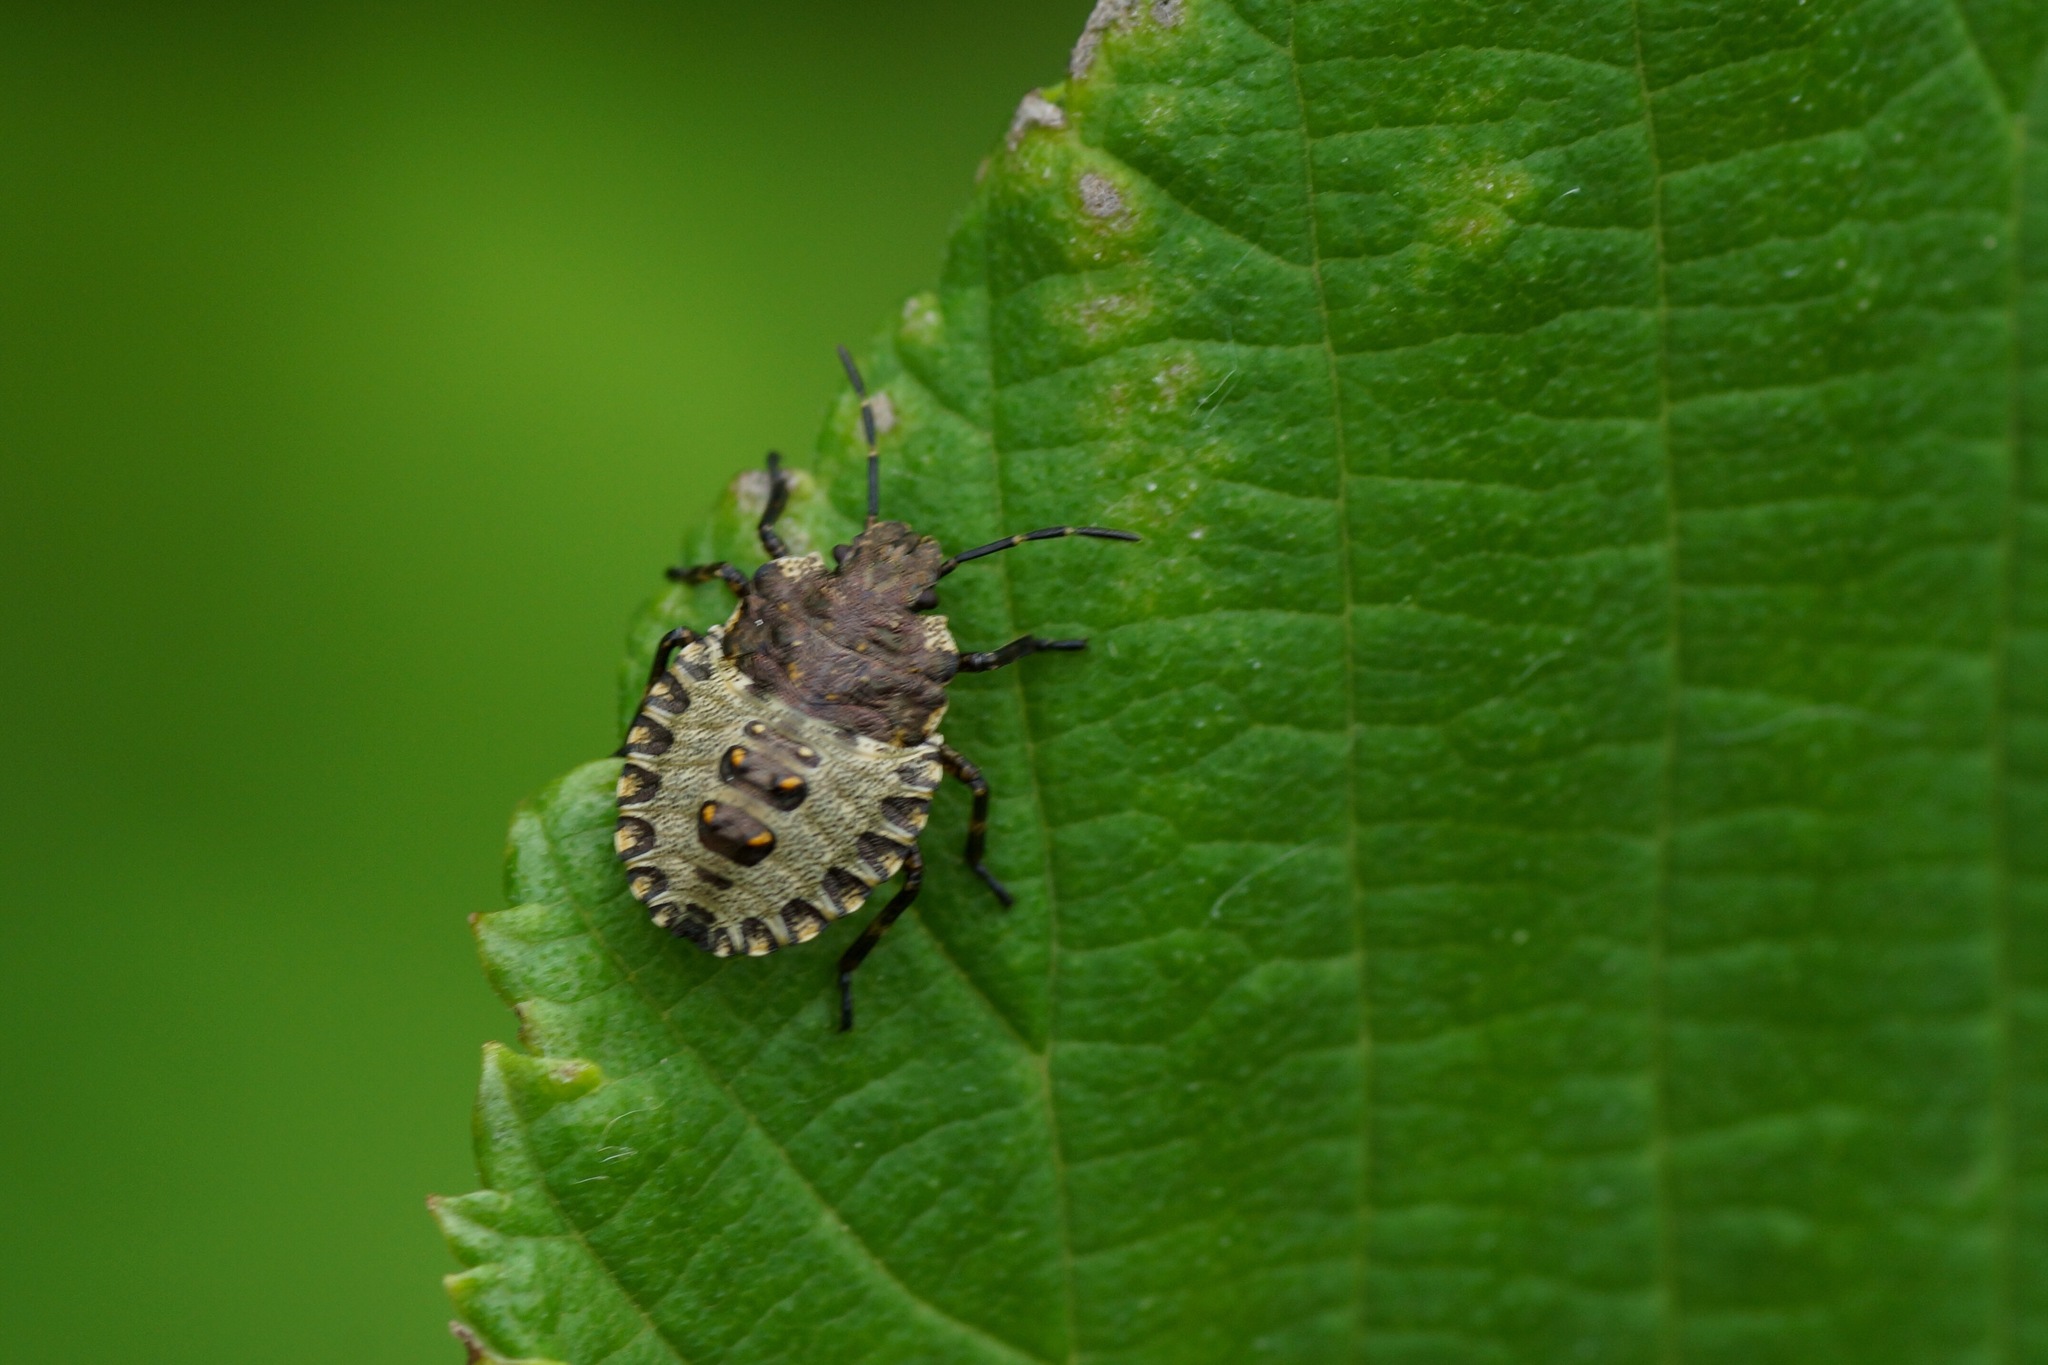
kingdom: Animalia
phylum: Arthropoda
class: Insecta
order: Hemiptera
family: Pentatomidae
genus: Pentatoma
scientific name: Pentatoma rufipes
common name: Forest bug
